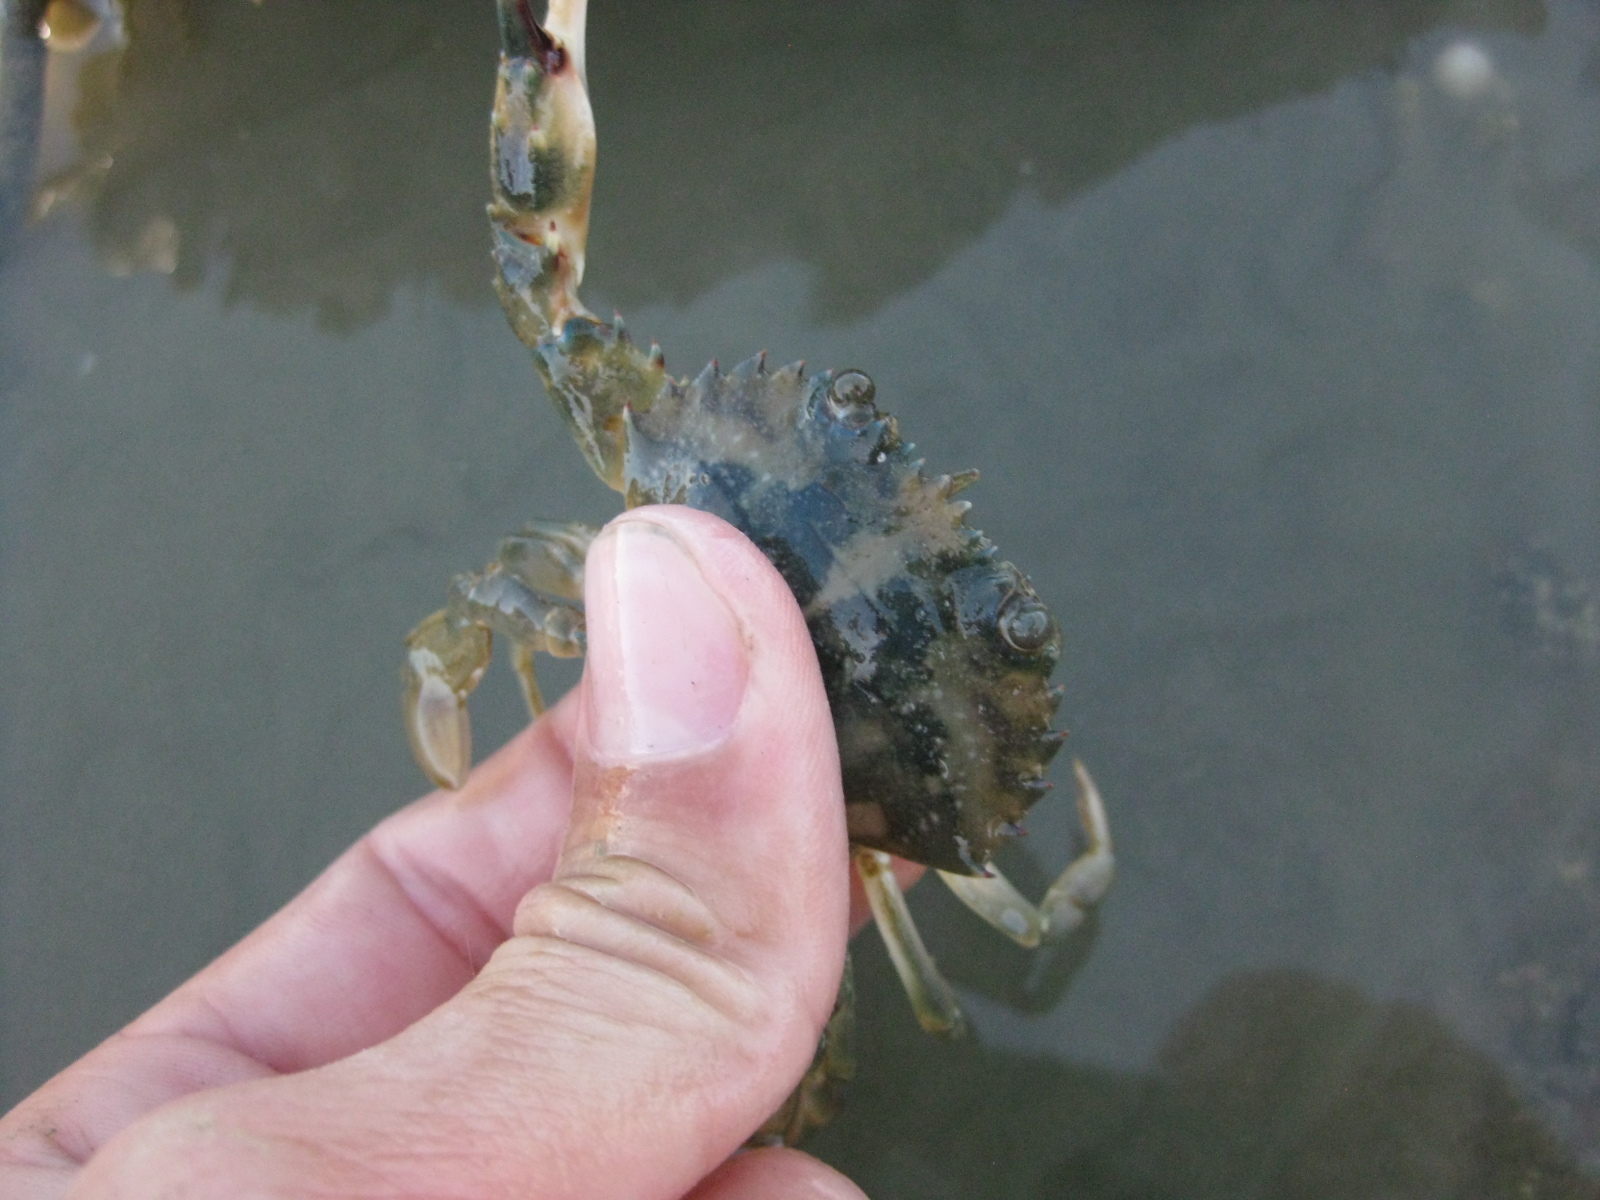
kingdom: Animalia
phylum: Arthropoda
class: Malacostraca
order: Decapoda
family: Portunidae
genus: Charybdis
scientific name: Charybdis japonica
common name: Asian paddle crab
